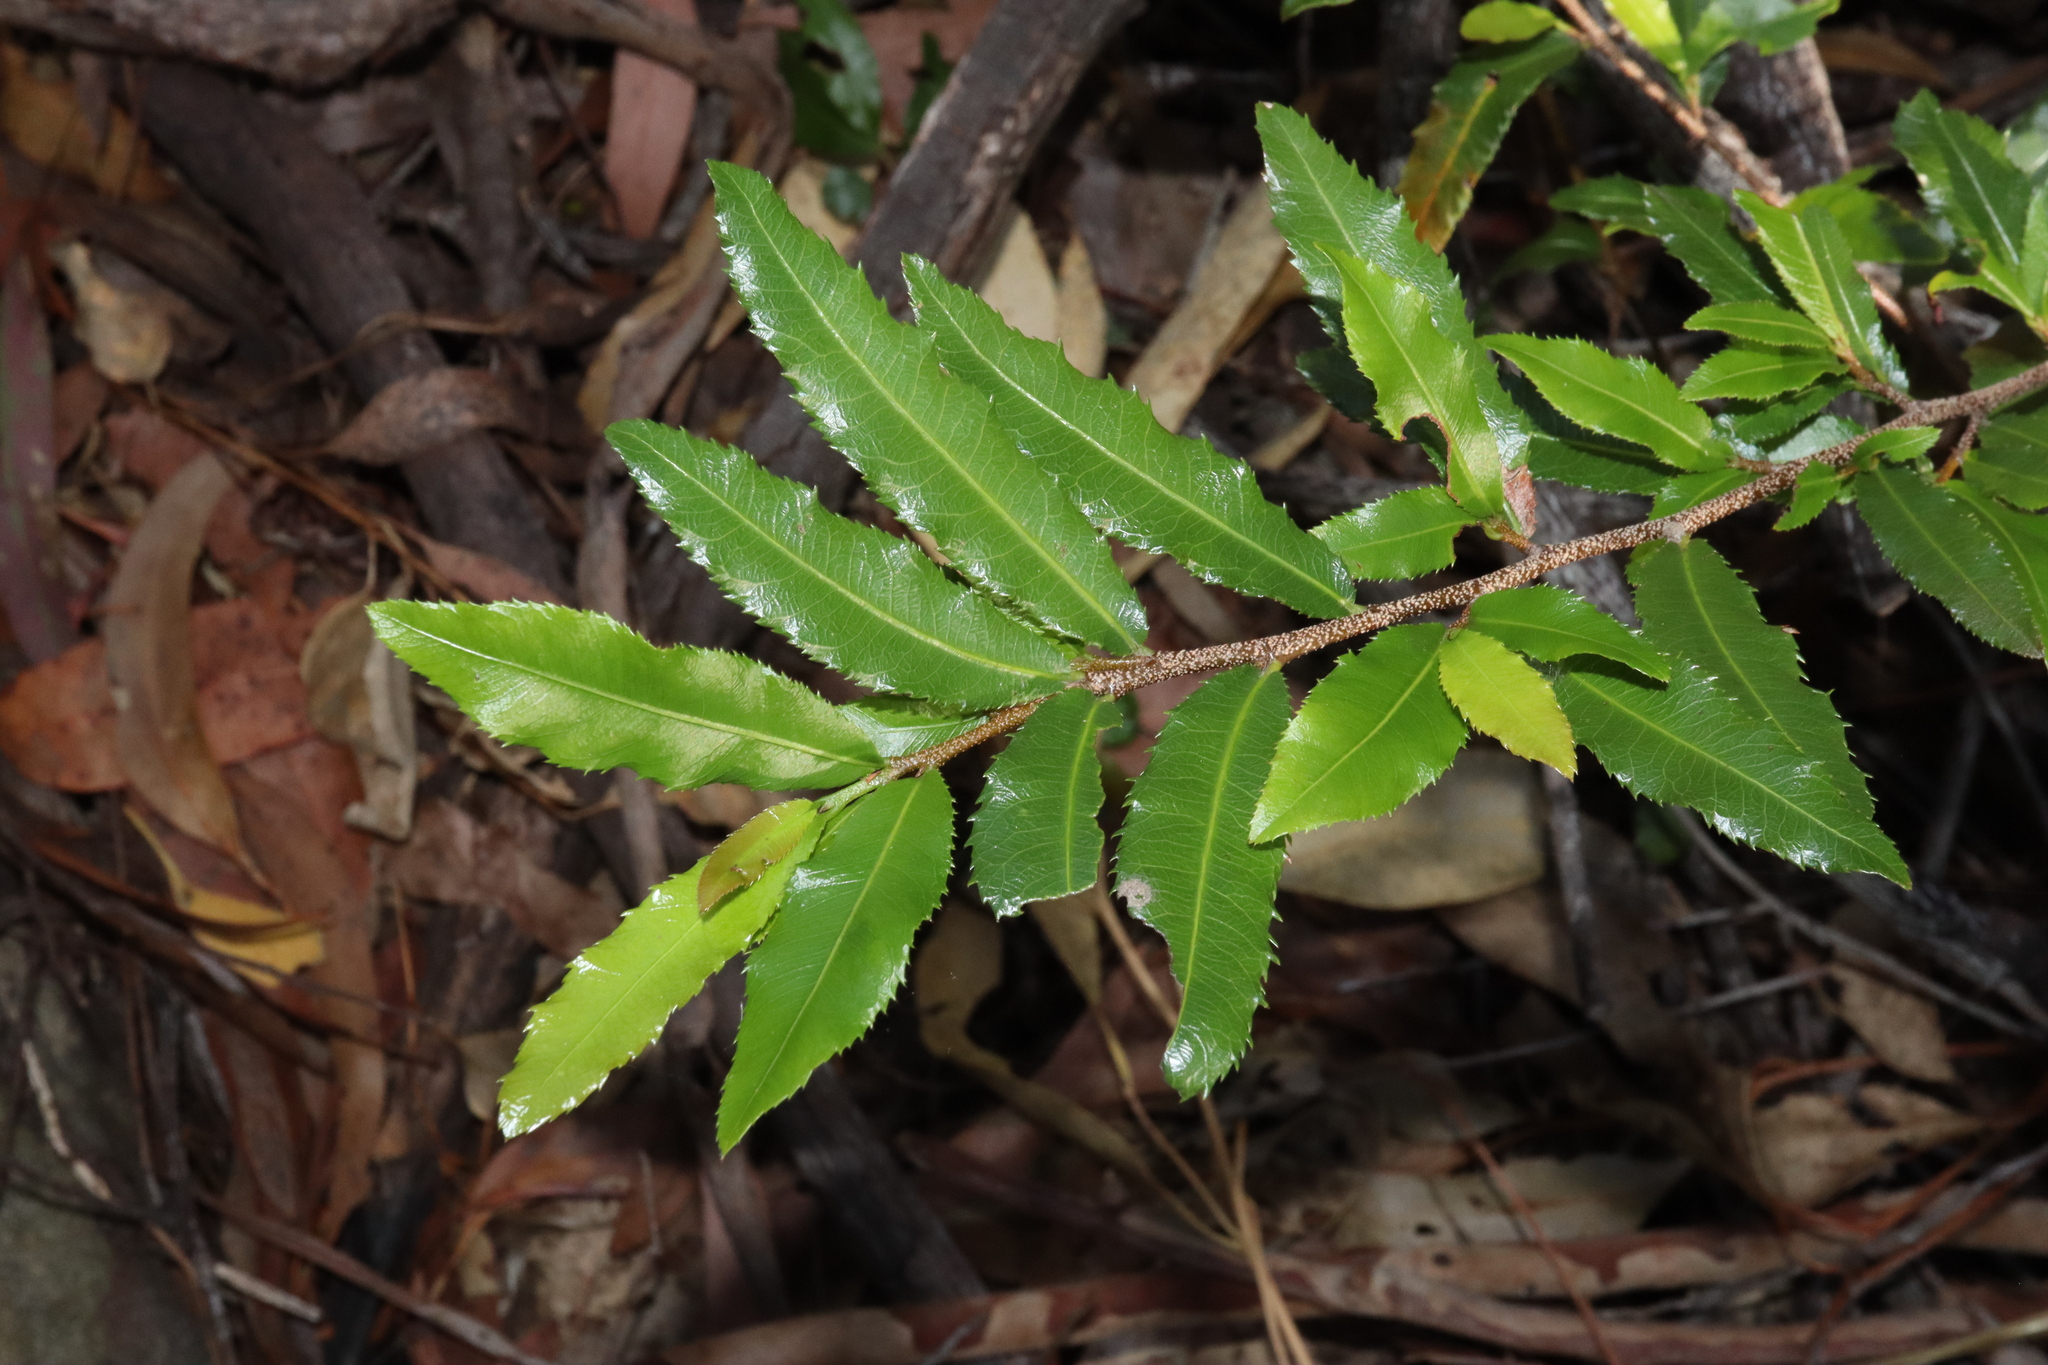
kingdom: Plantae
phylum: Tracheophyta
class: Magnoliopsida
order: Malpighiales
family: Ochnaceae
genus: Ochna
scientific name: Ochna serrulata
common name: Mickey mouse plant
